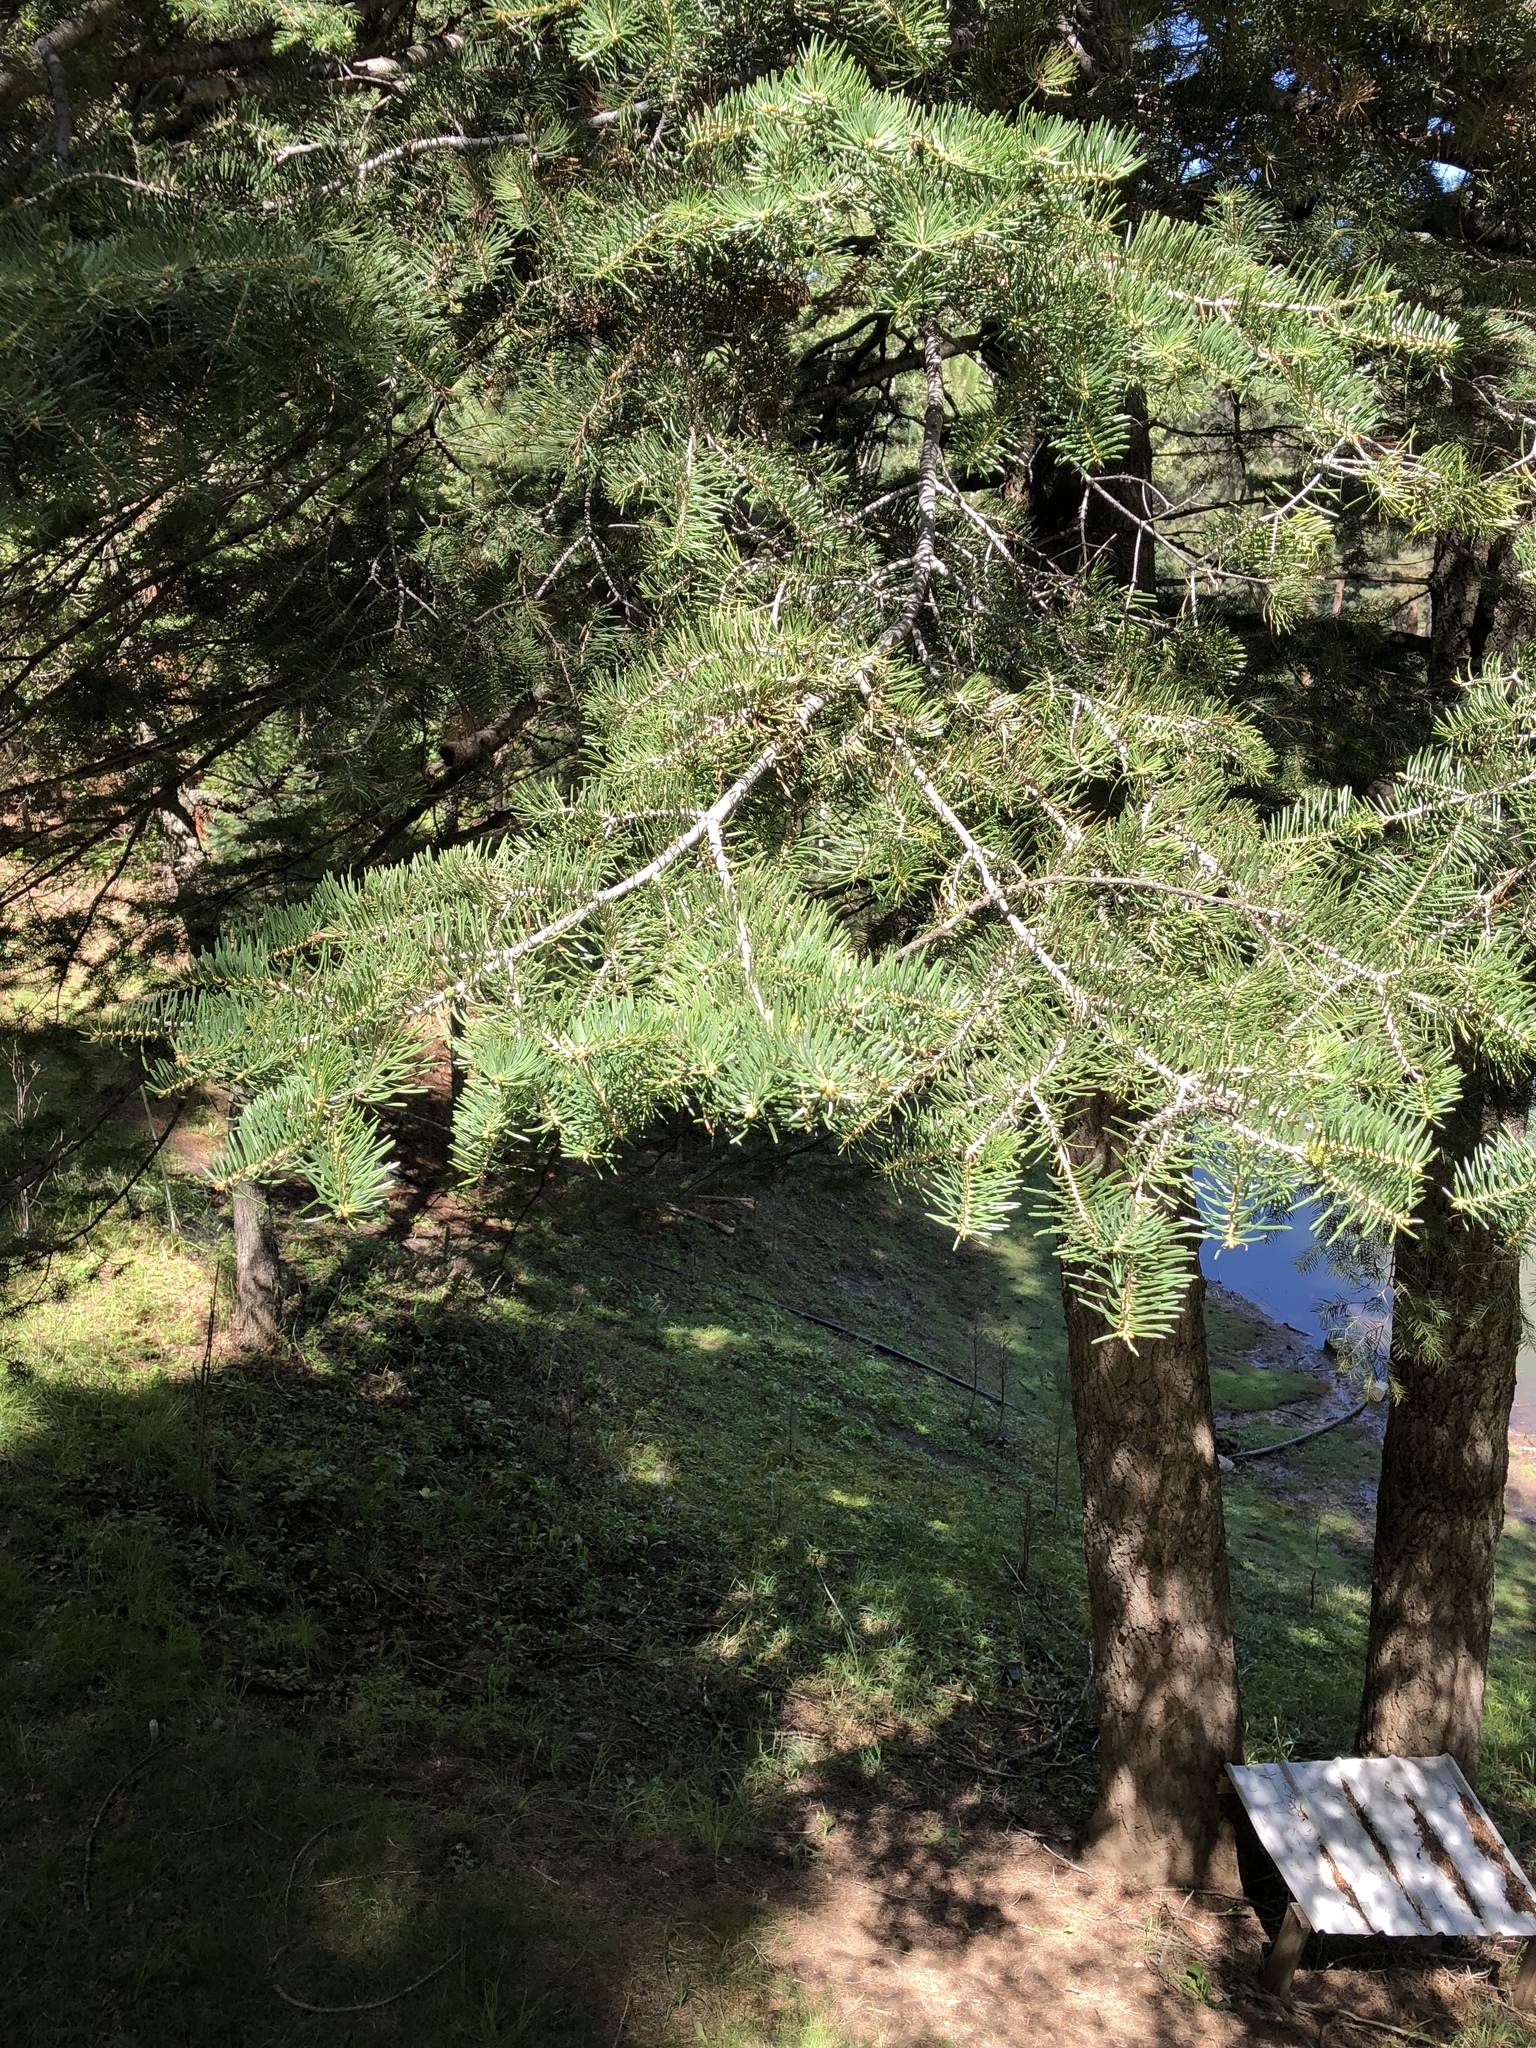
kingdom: Plantae
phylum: Tracheophyta
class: Pinopsida
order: Pinales
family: Pinaceae
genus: Abies
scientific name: Abies concolor
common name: Colorado fir
